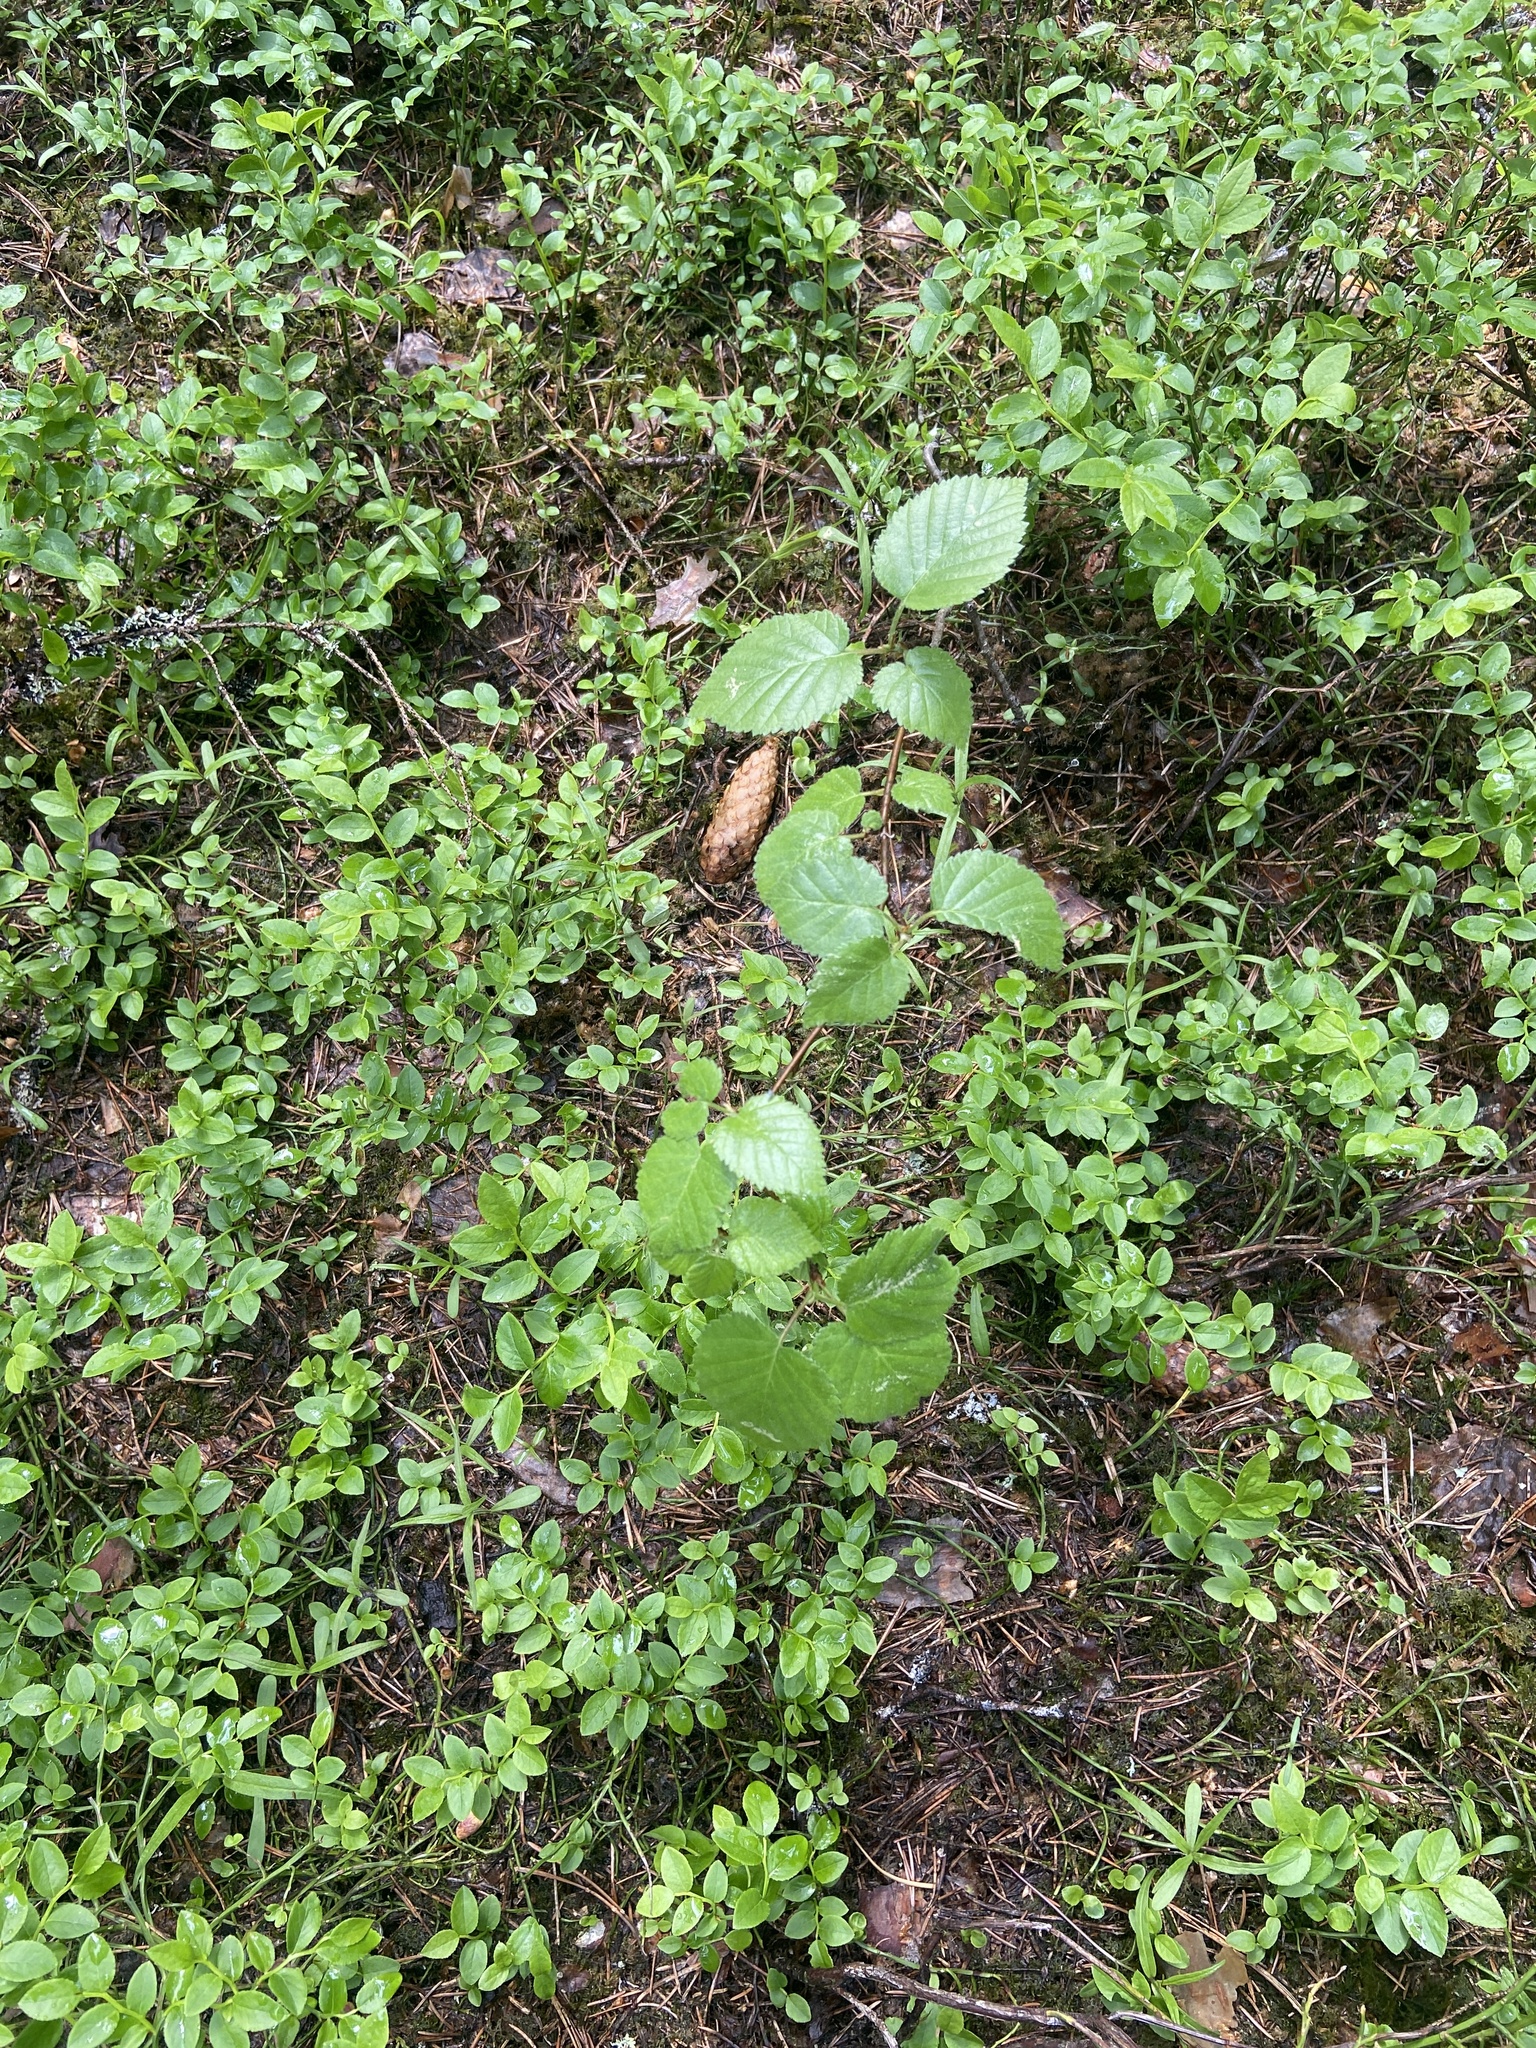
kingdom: Plantae
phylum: Tracheophyta
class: Magnoliopsida
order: Fagales
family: Betulaceae
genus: Betula
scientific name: Betula pubescens
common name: Downy birch
